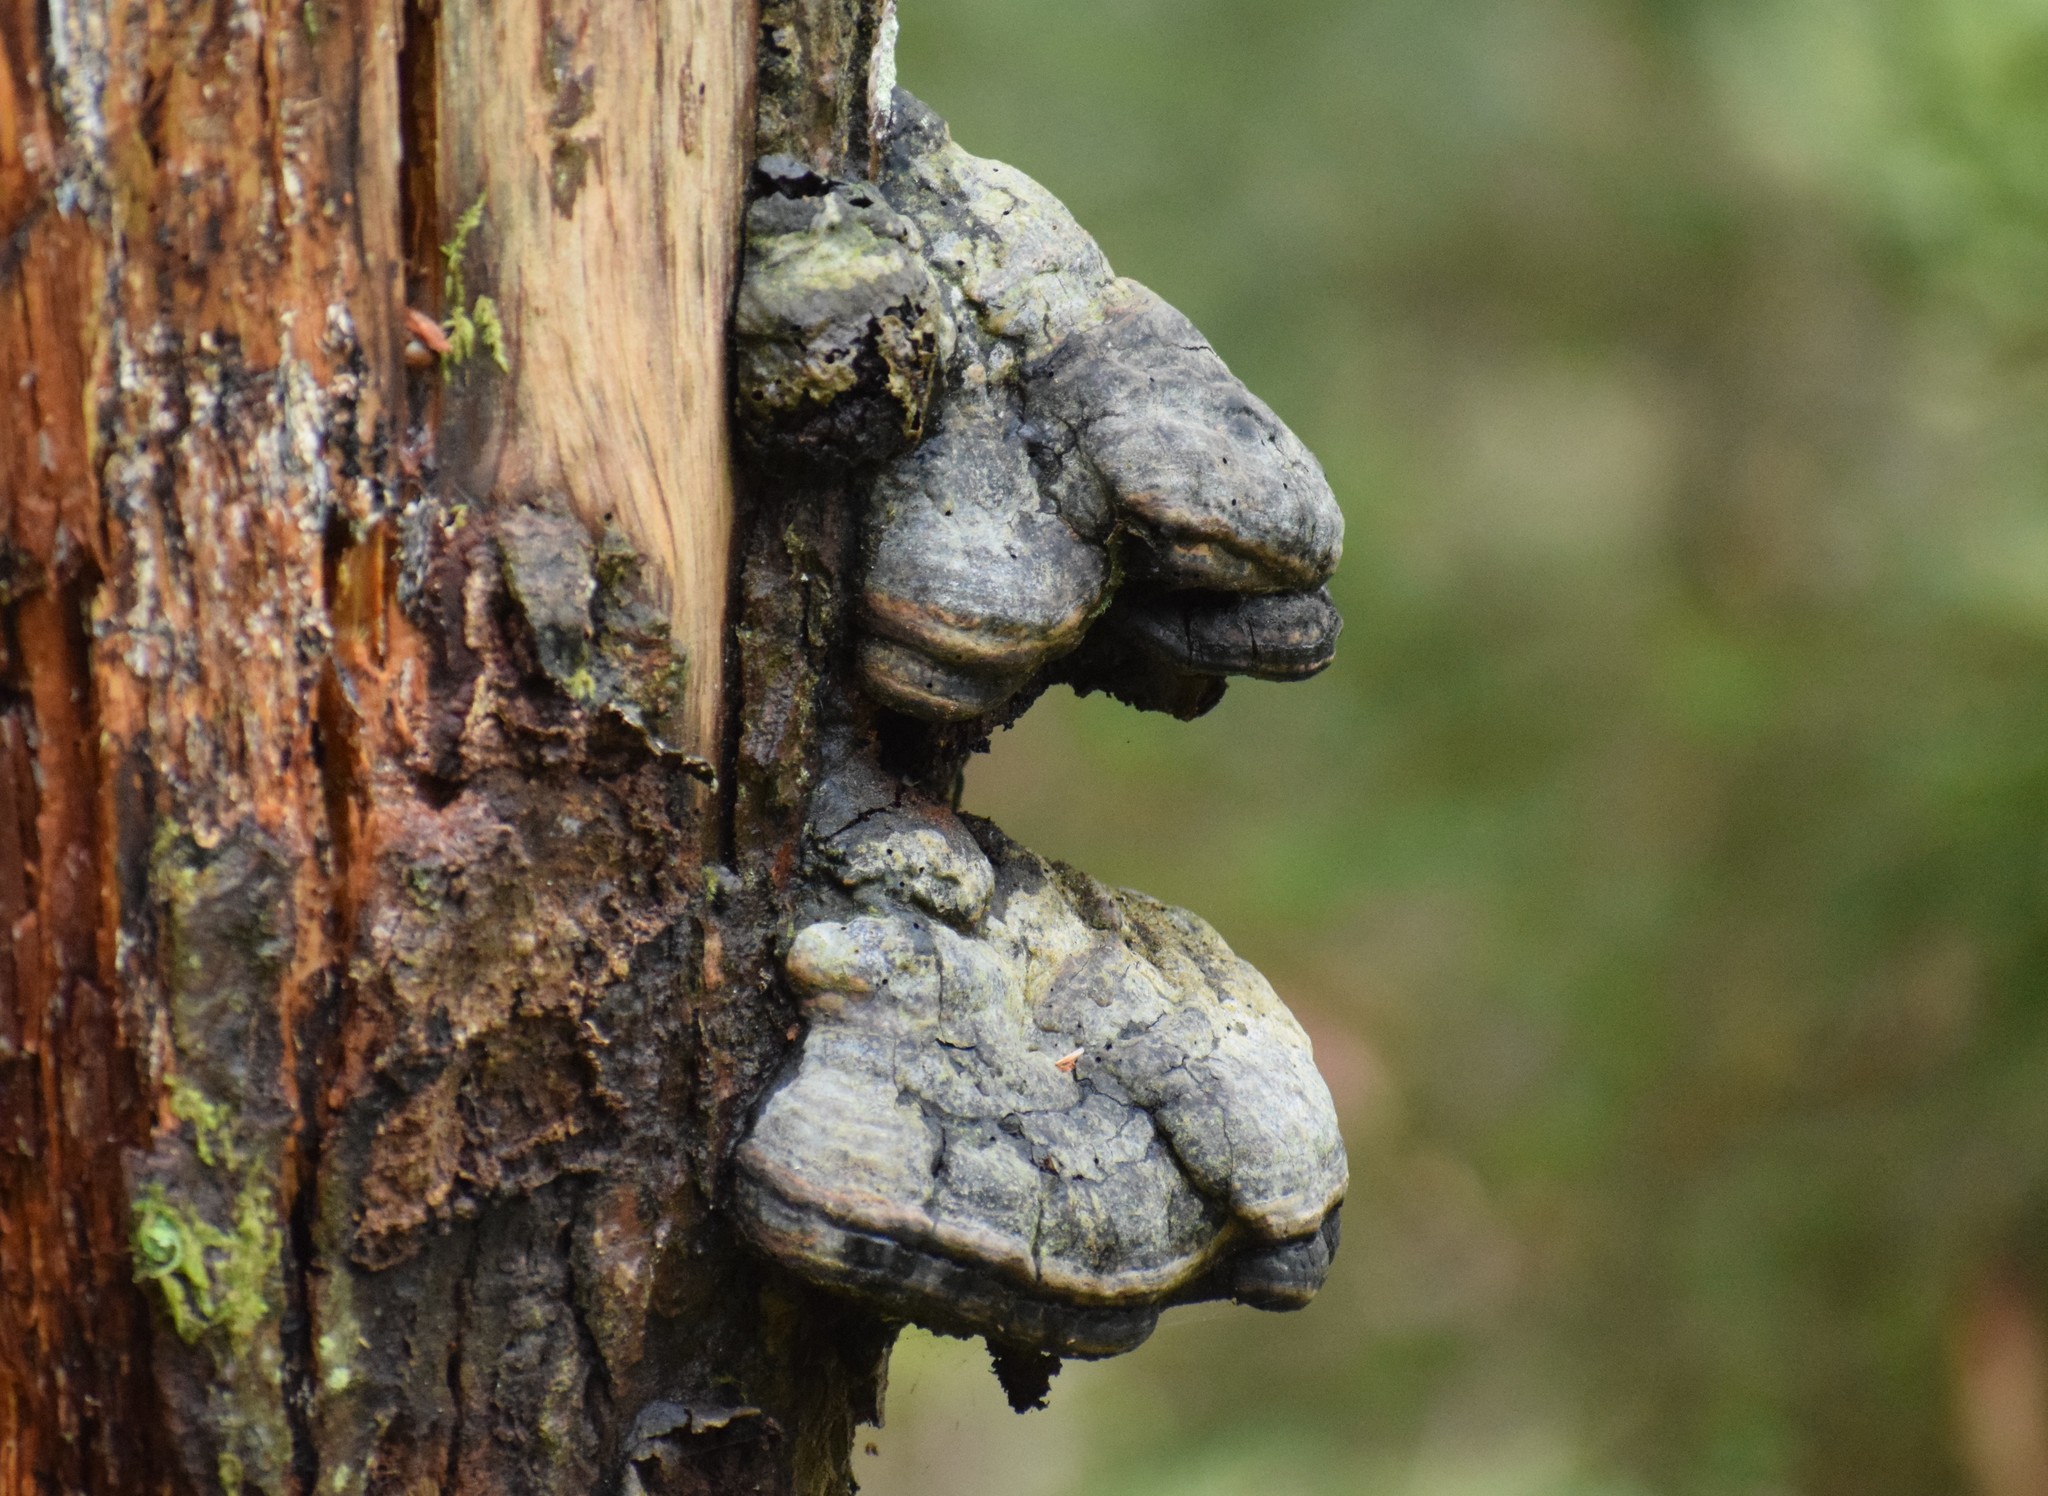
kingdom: Fungi
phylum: Basidiomycota
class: Agaricomycetes
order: Polyporales
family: Polyporaceae
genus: Fomes
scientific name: Fomes fomentarius
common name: Hoof fungus
